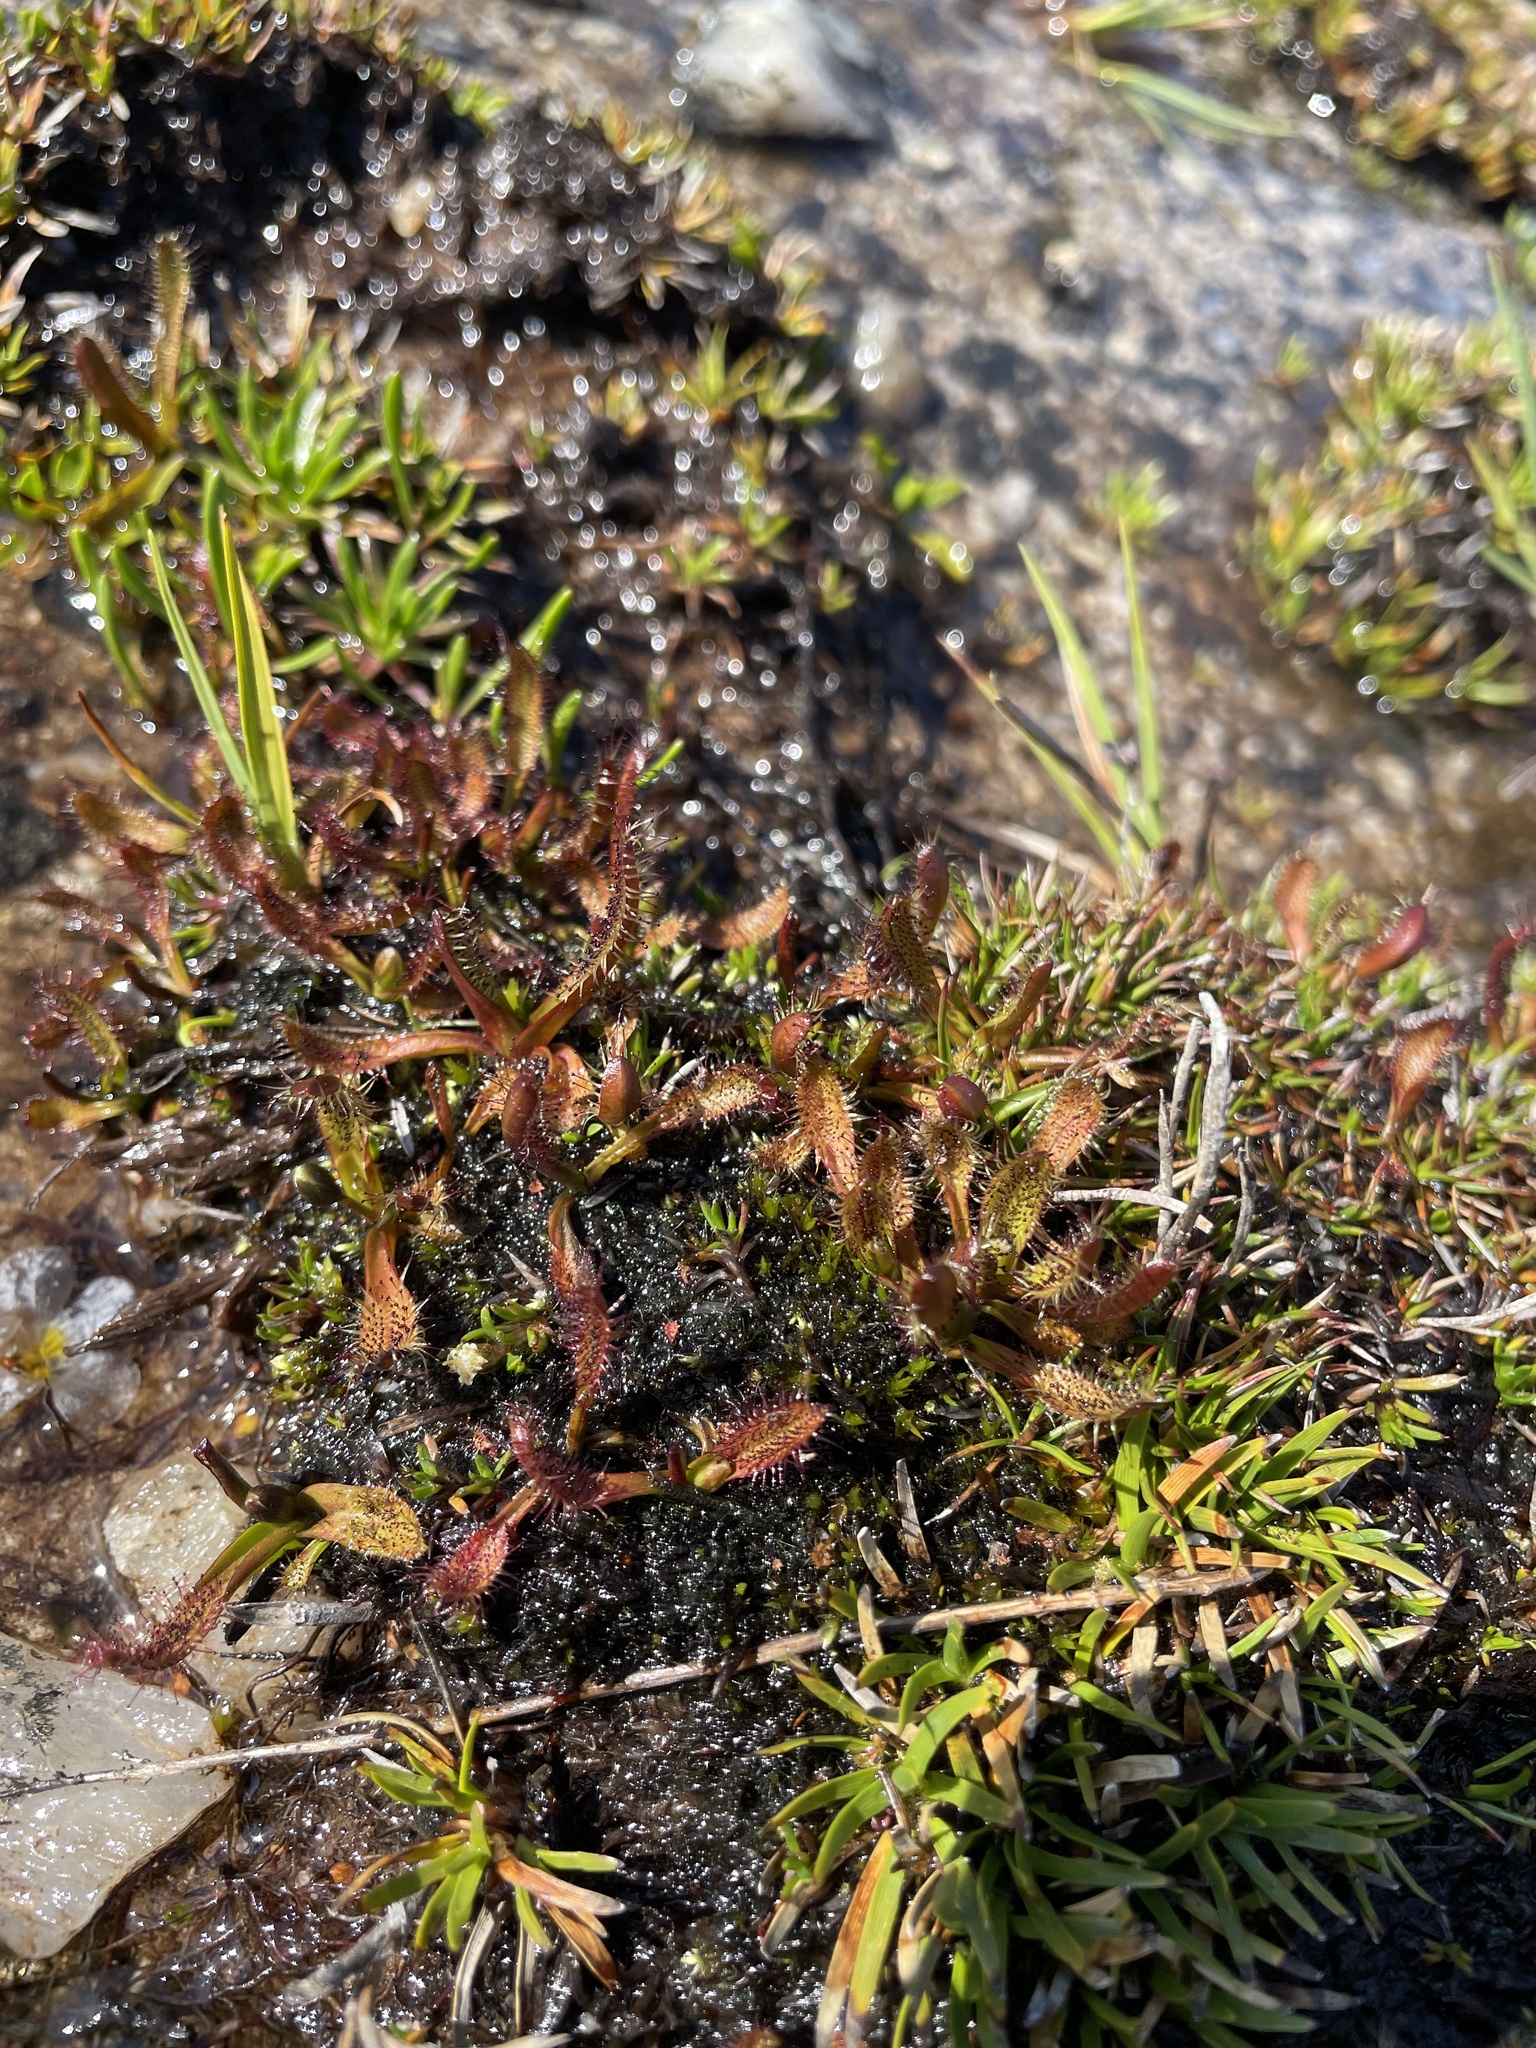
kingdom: Plantae
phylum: Tracheophyta
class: Magnoliopsida
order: Caryophyllales
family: Droseraceae
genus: Drosera
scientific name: Drosera arcturi
